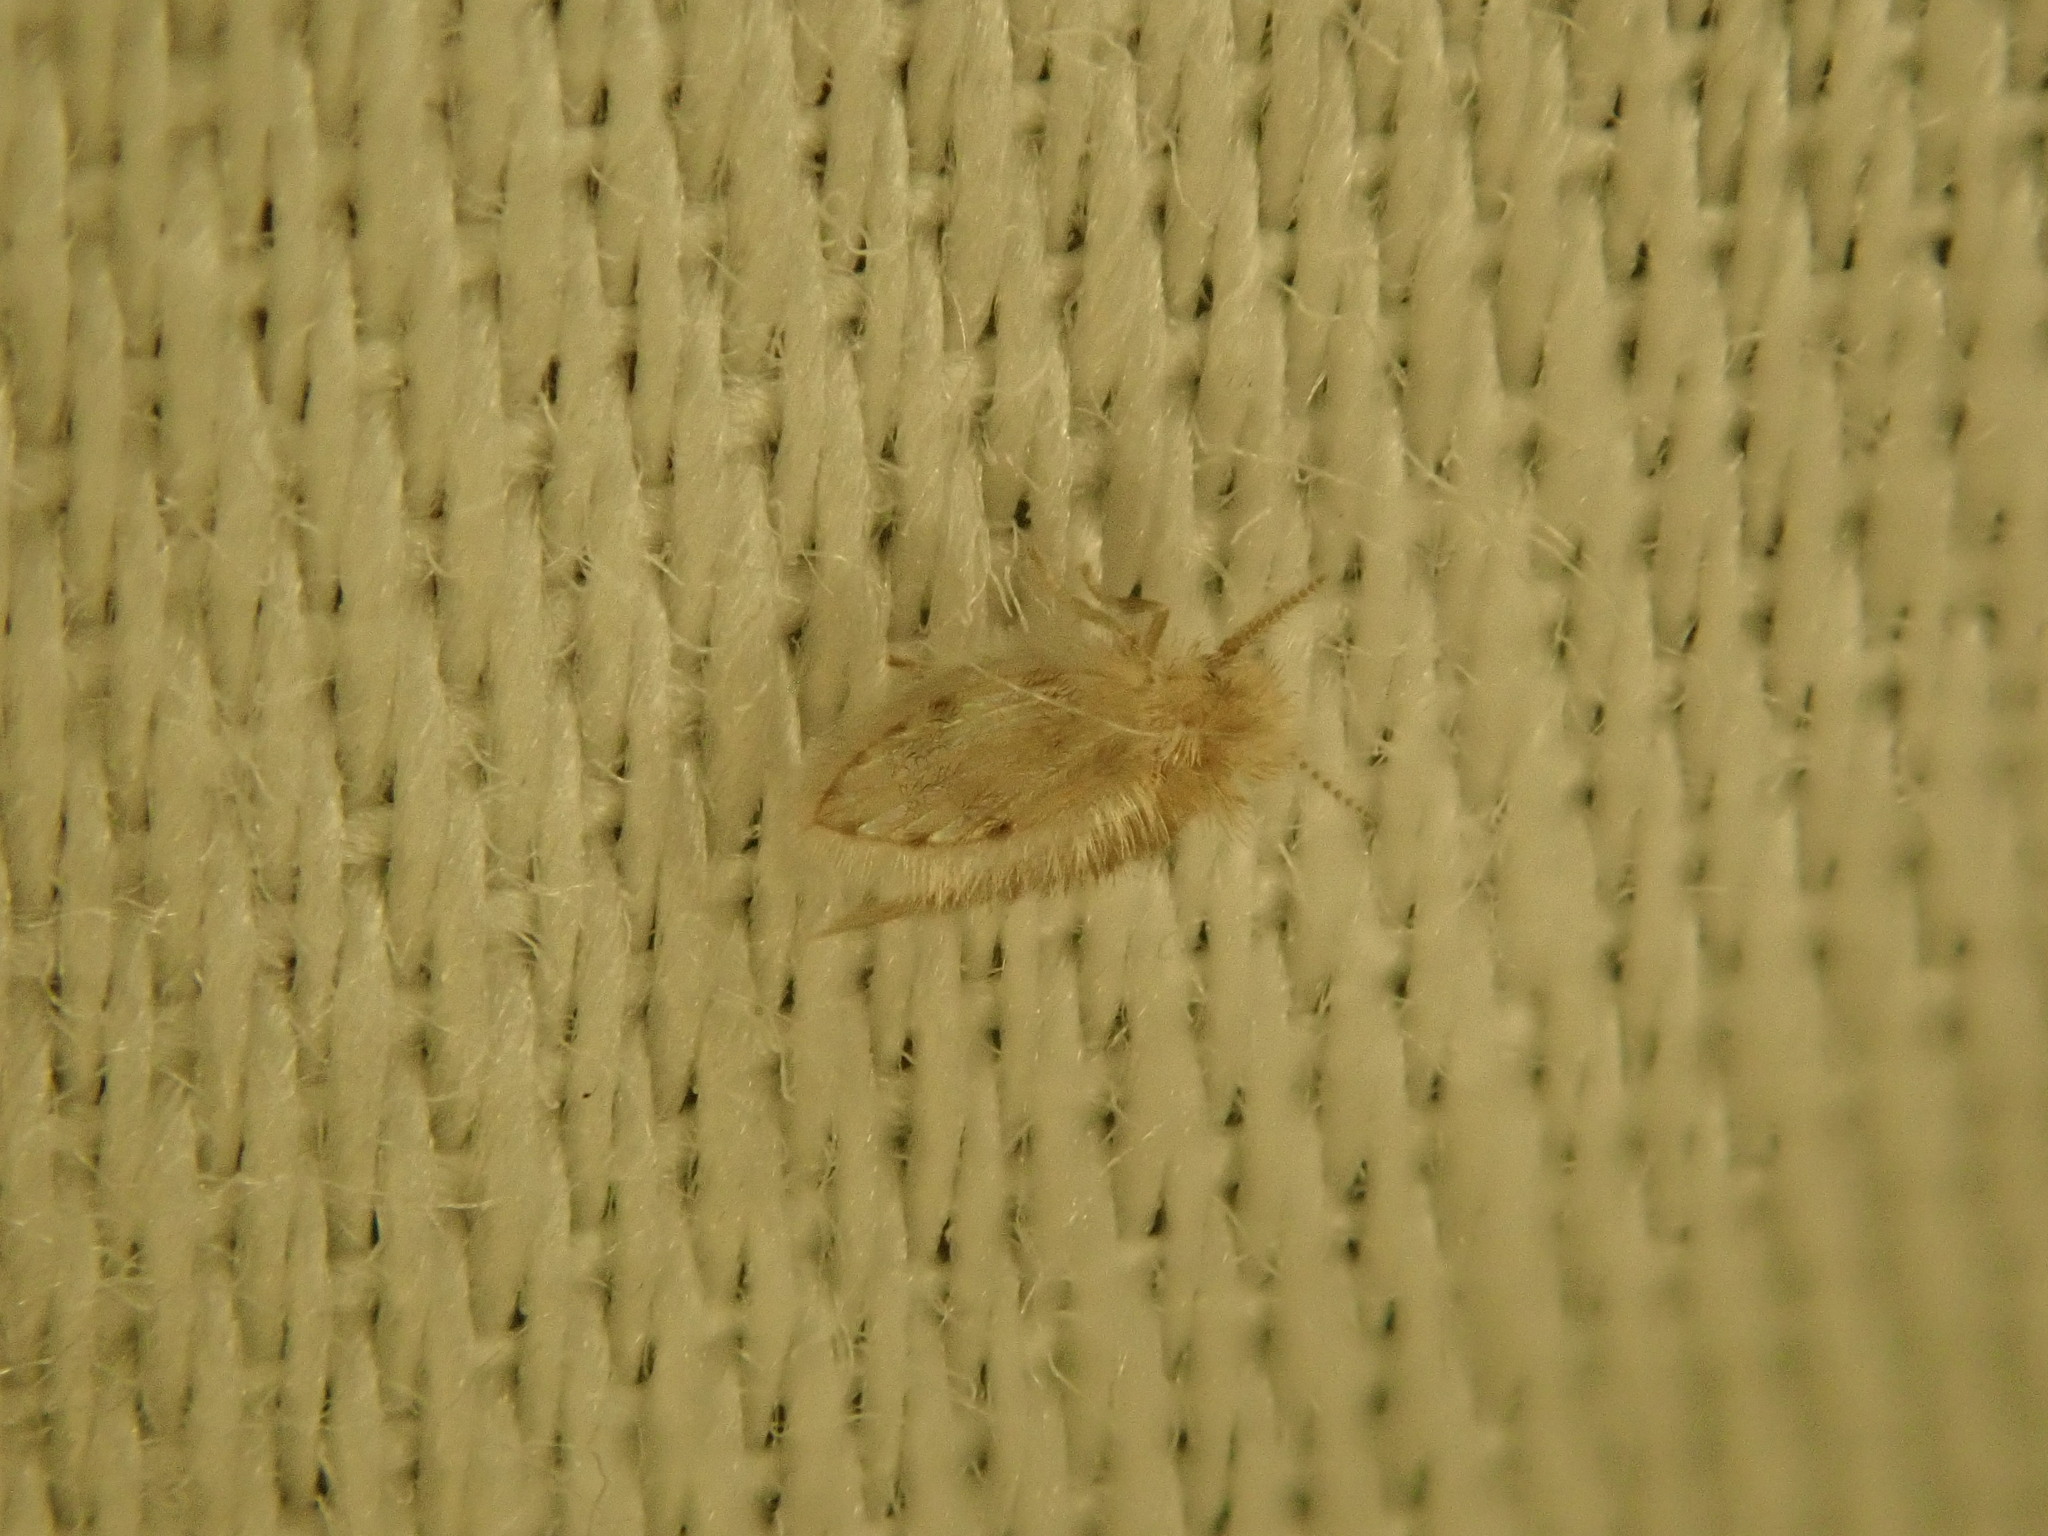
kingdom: Animalia
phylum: Arthropoda
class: Insecta
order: Diptera
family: Psychodidae
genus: Psychoda
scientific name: Psychoda alternata
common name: Moth fly
